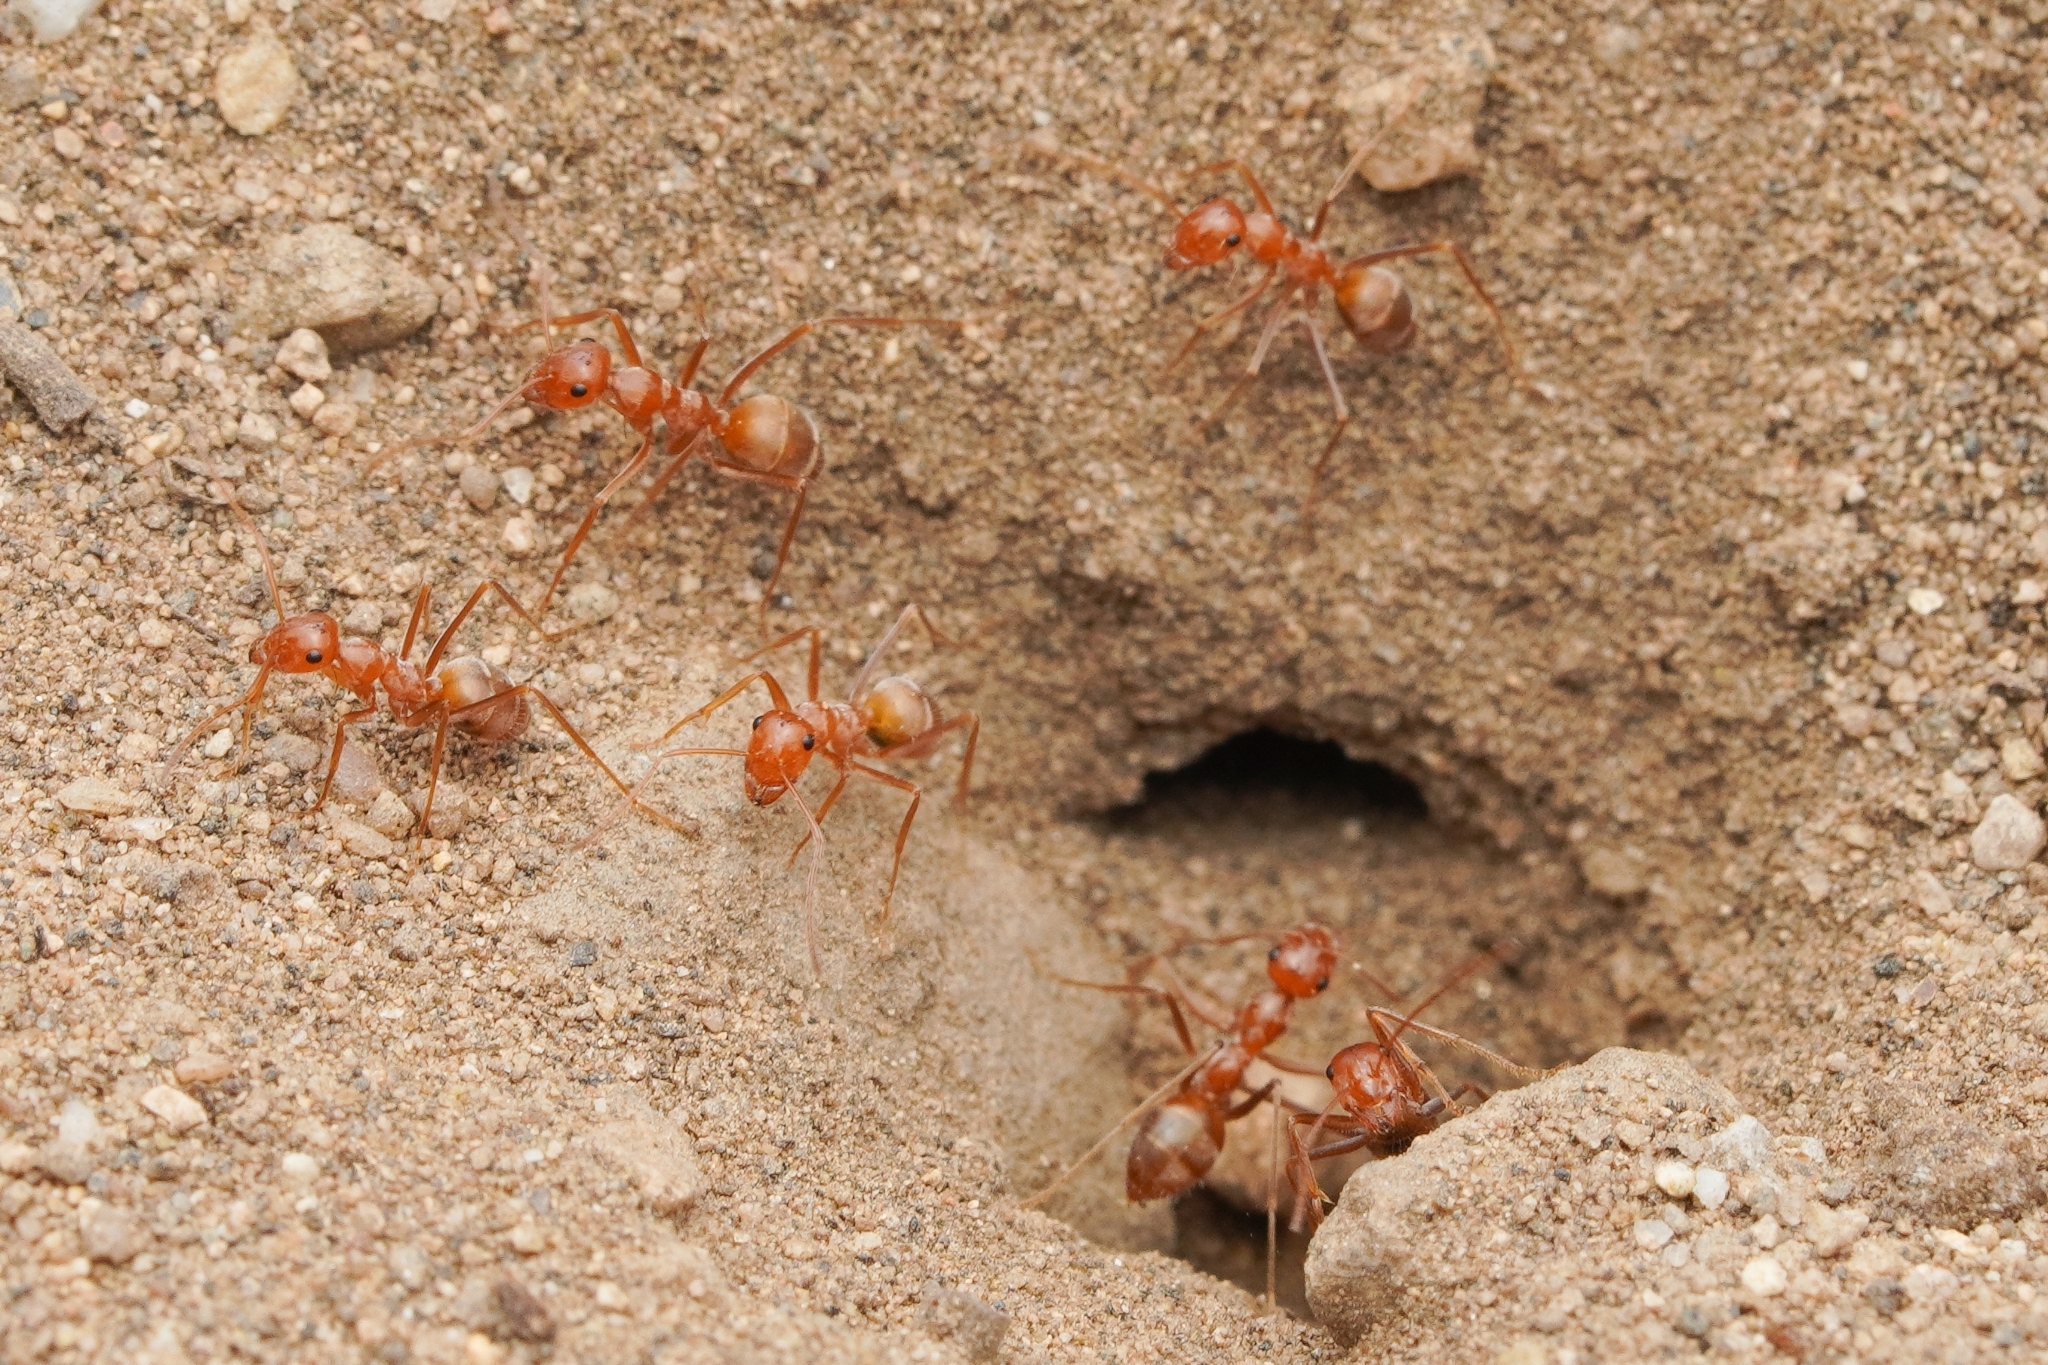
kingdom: Animalia
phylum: Arthropoda
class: Insecta
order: Hymenoptera
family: Formicidae
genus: Myrmecocystus
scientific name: Myrmecocystus wheeleri
